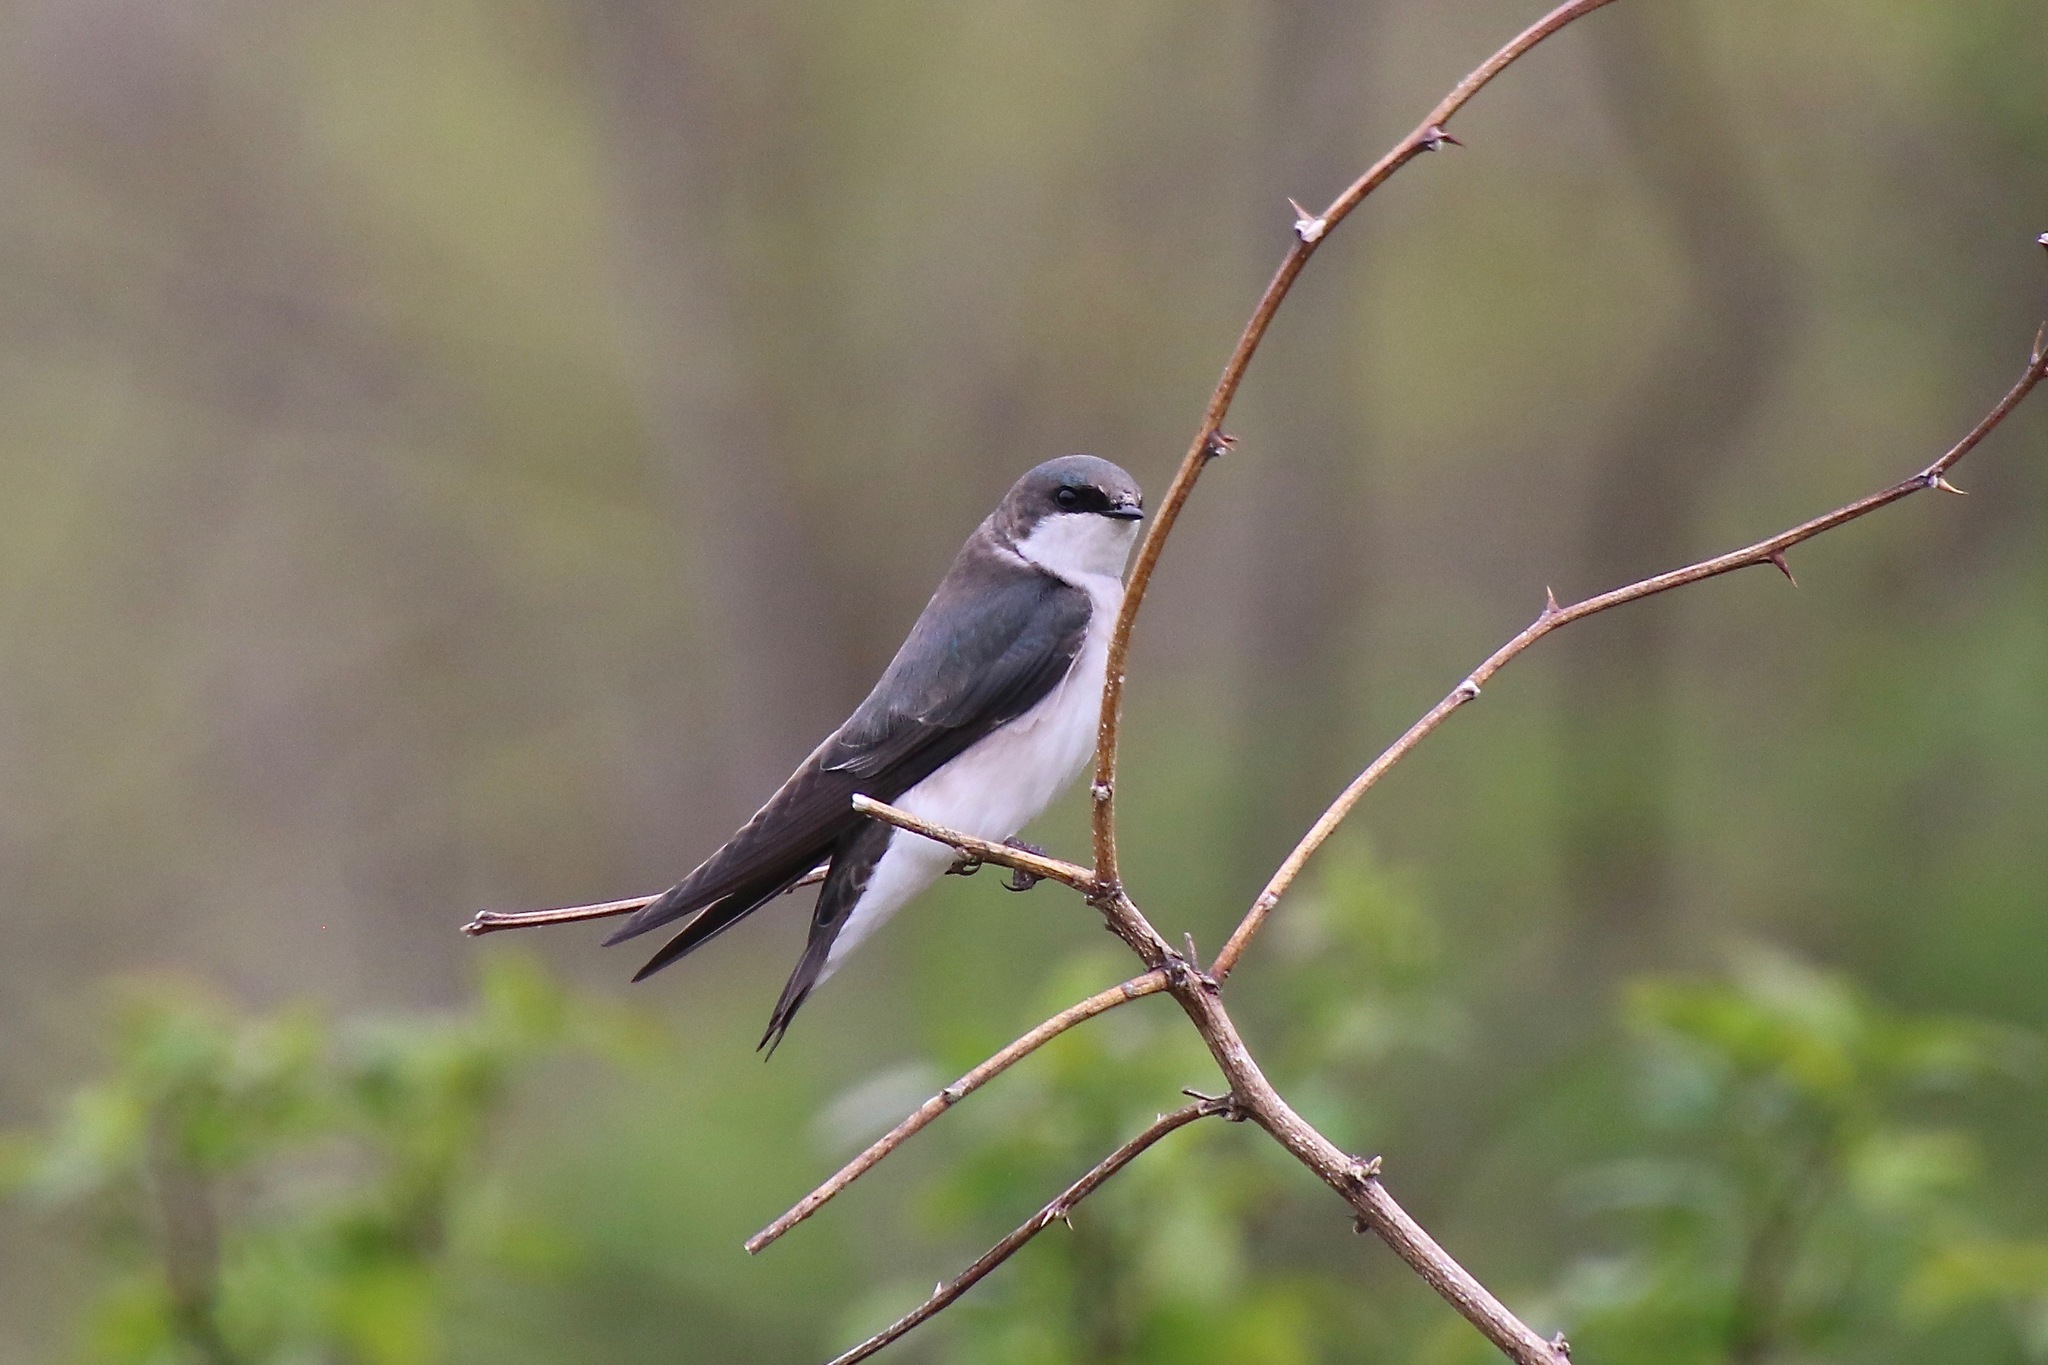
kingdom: Animalia
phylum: Chordata
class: Aves
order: Passeriformes
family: Hirundinidae
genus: Tachycineta
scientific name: Tachycineta bicolor
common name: Tree swallow
